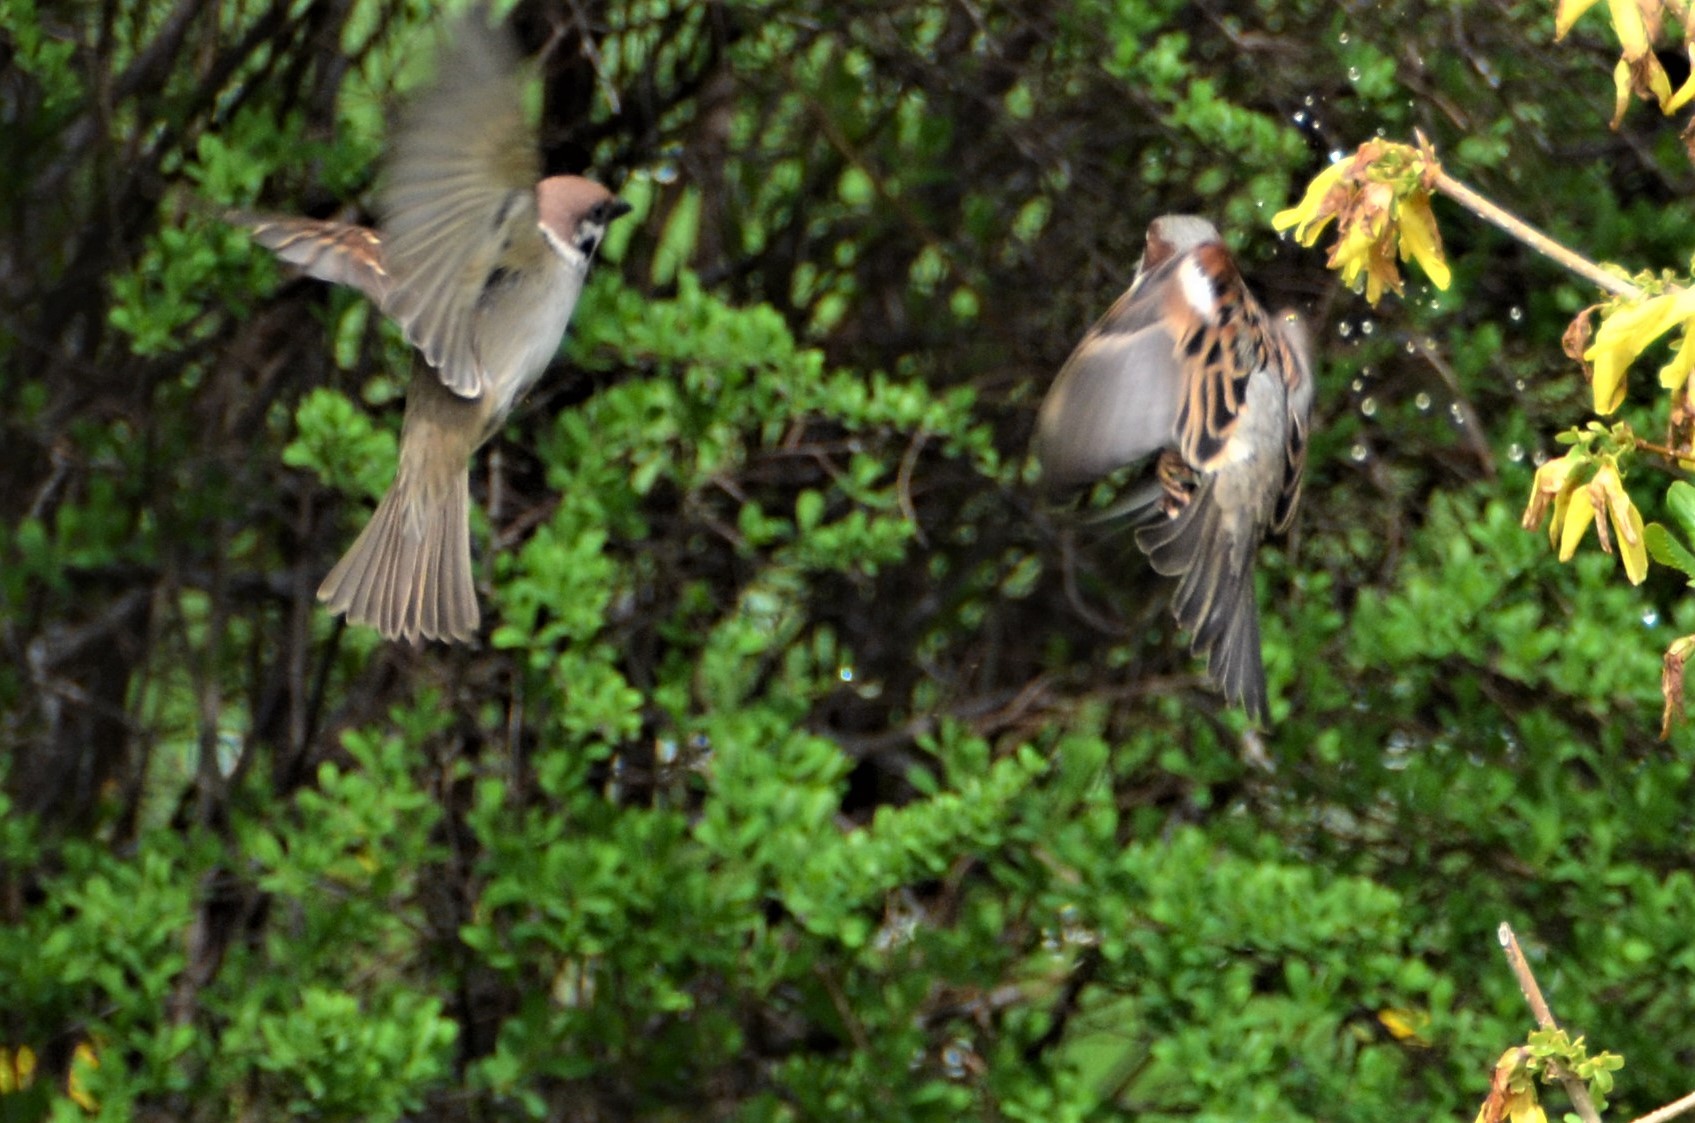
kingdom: Animalia
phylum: Chordata
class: Aves
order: Passeriformes
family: Passeridae
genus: Passer
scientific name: Passer montanus
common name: Eurasian tree sparrow
